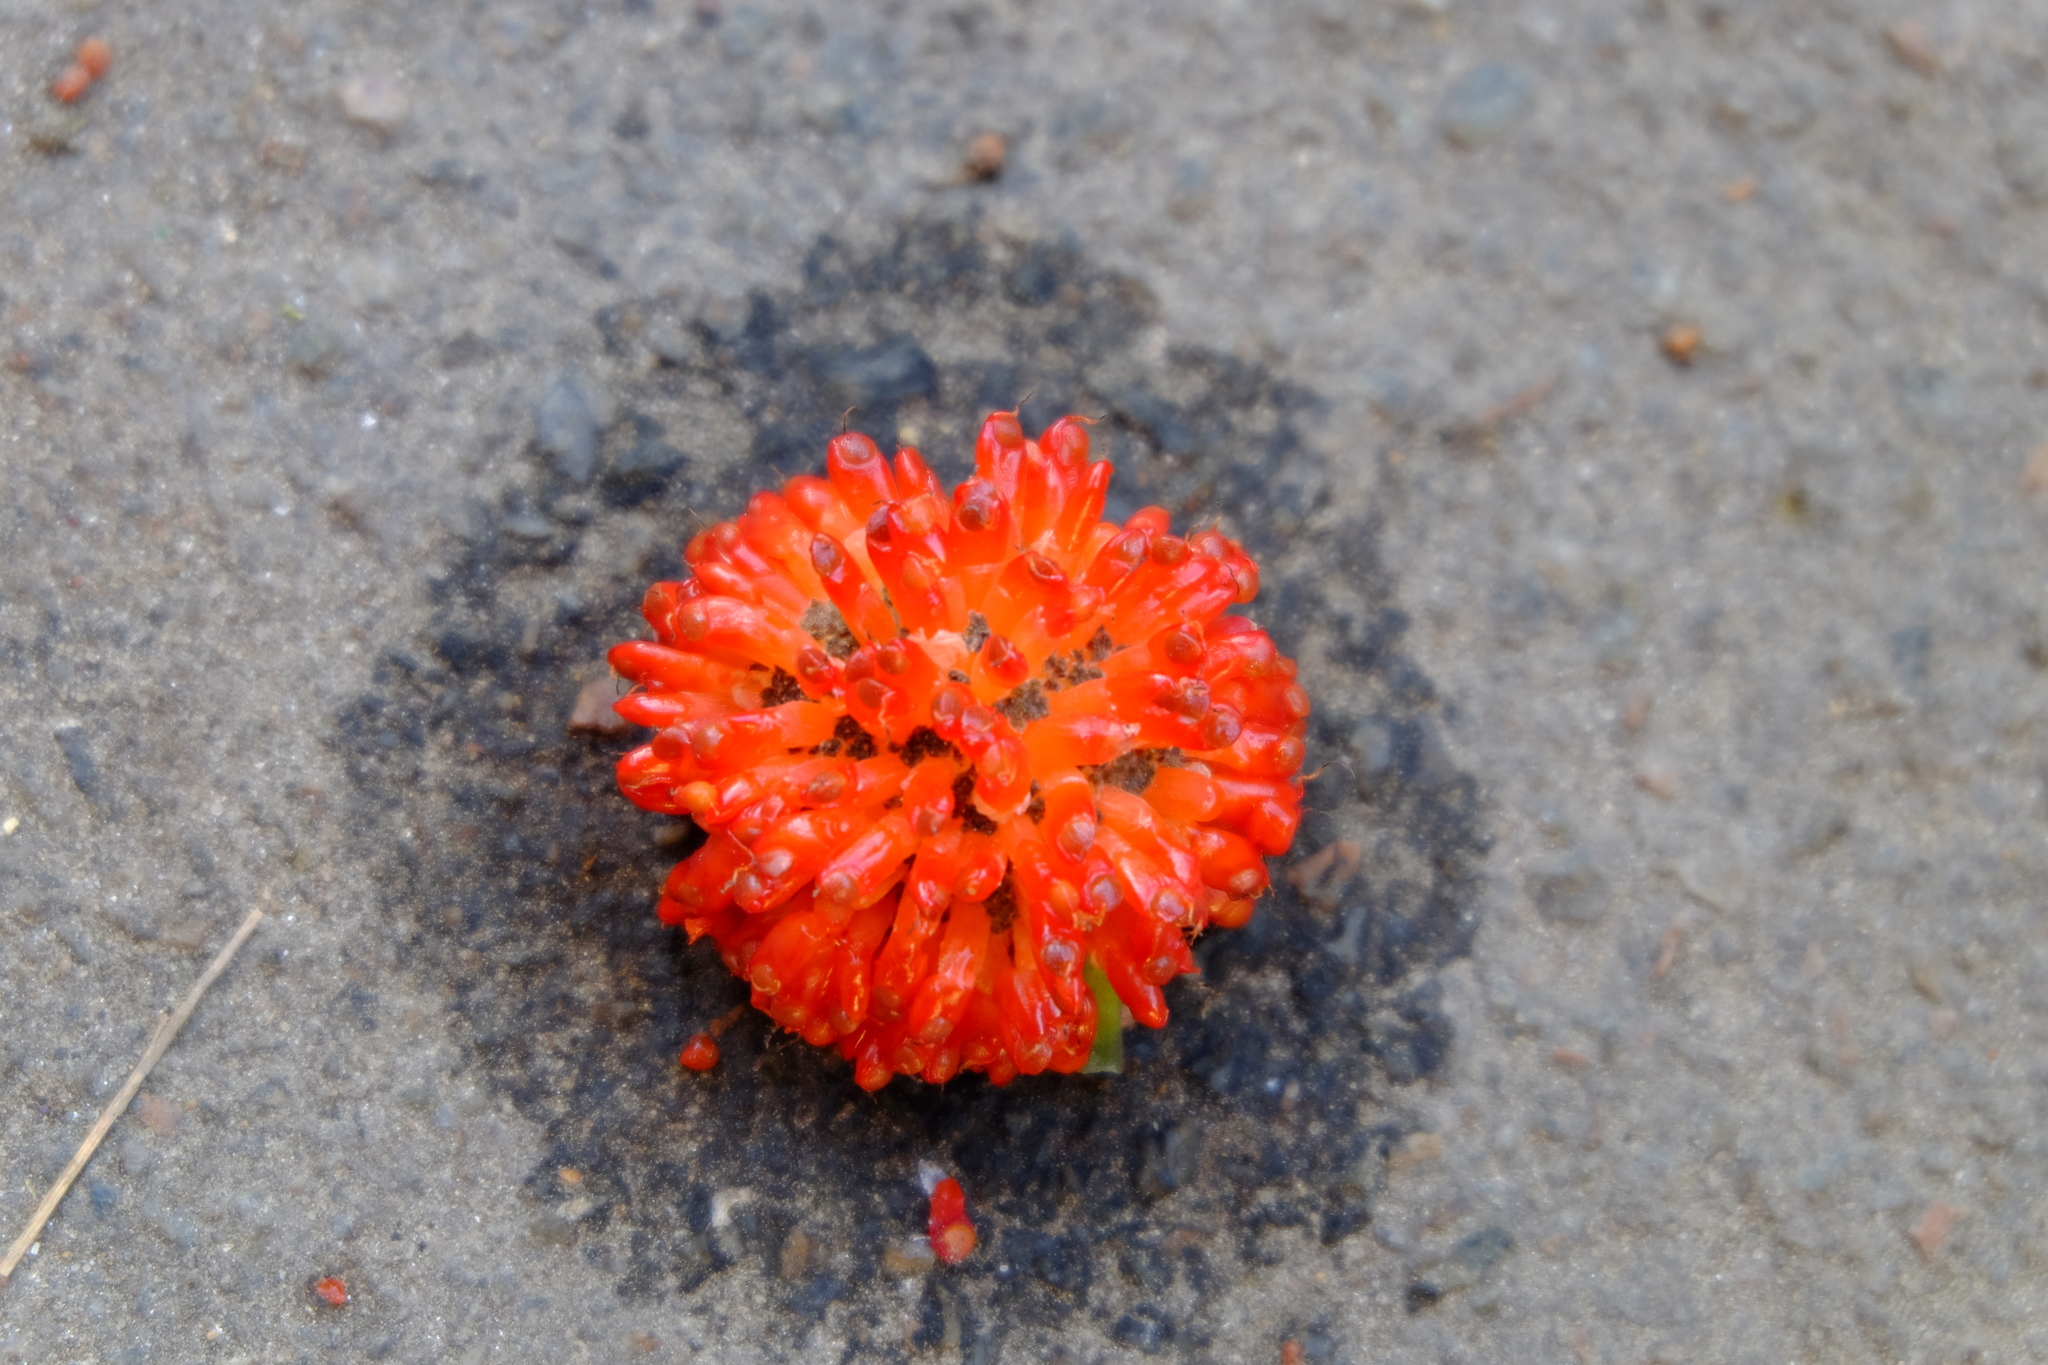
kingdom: Plantae
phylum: Tracheophyta
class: Magnoliopsida
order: Rosales
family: Moraceae
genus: Broussonetia
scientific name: Broussonetia papyrifera
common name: Paper mulberry
